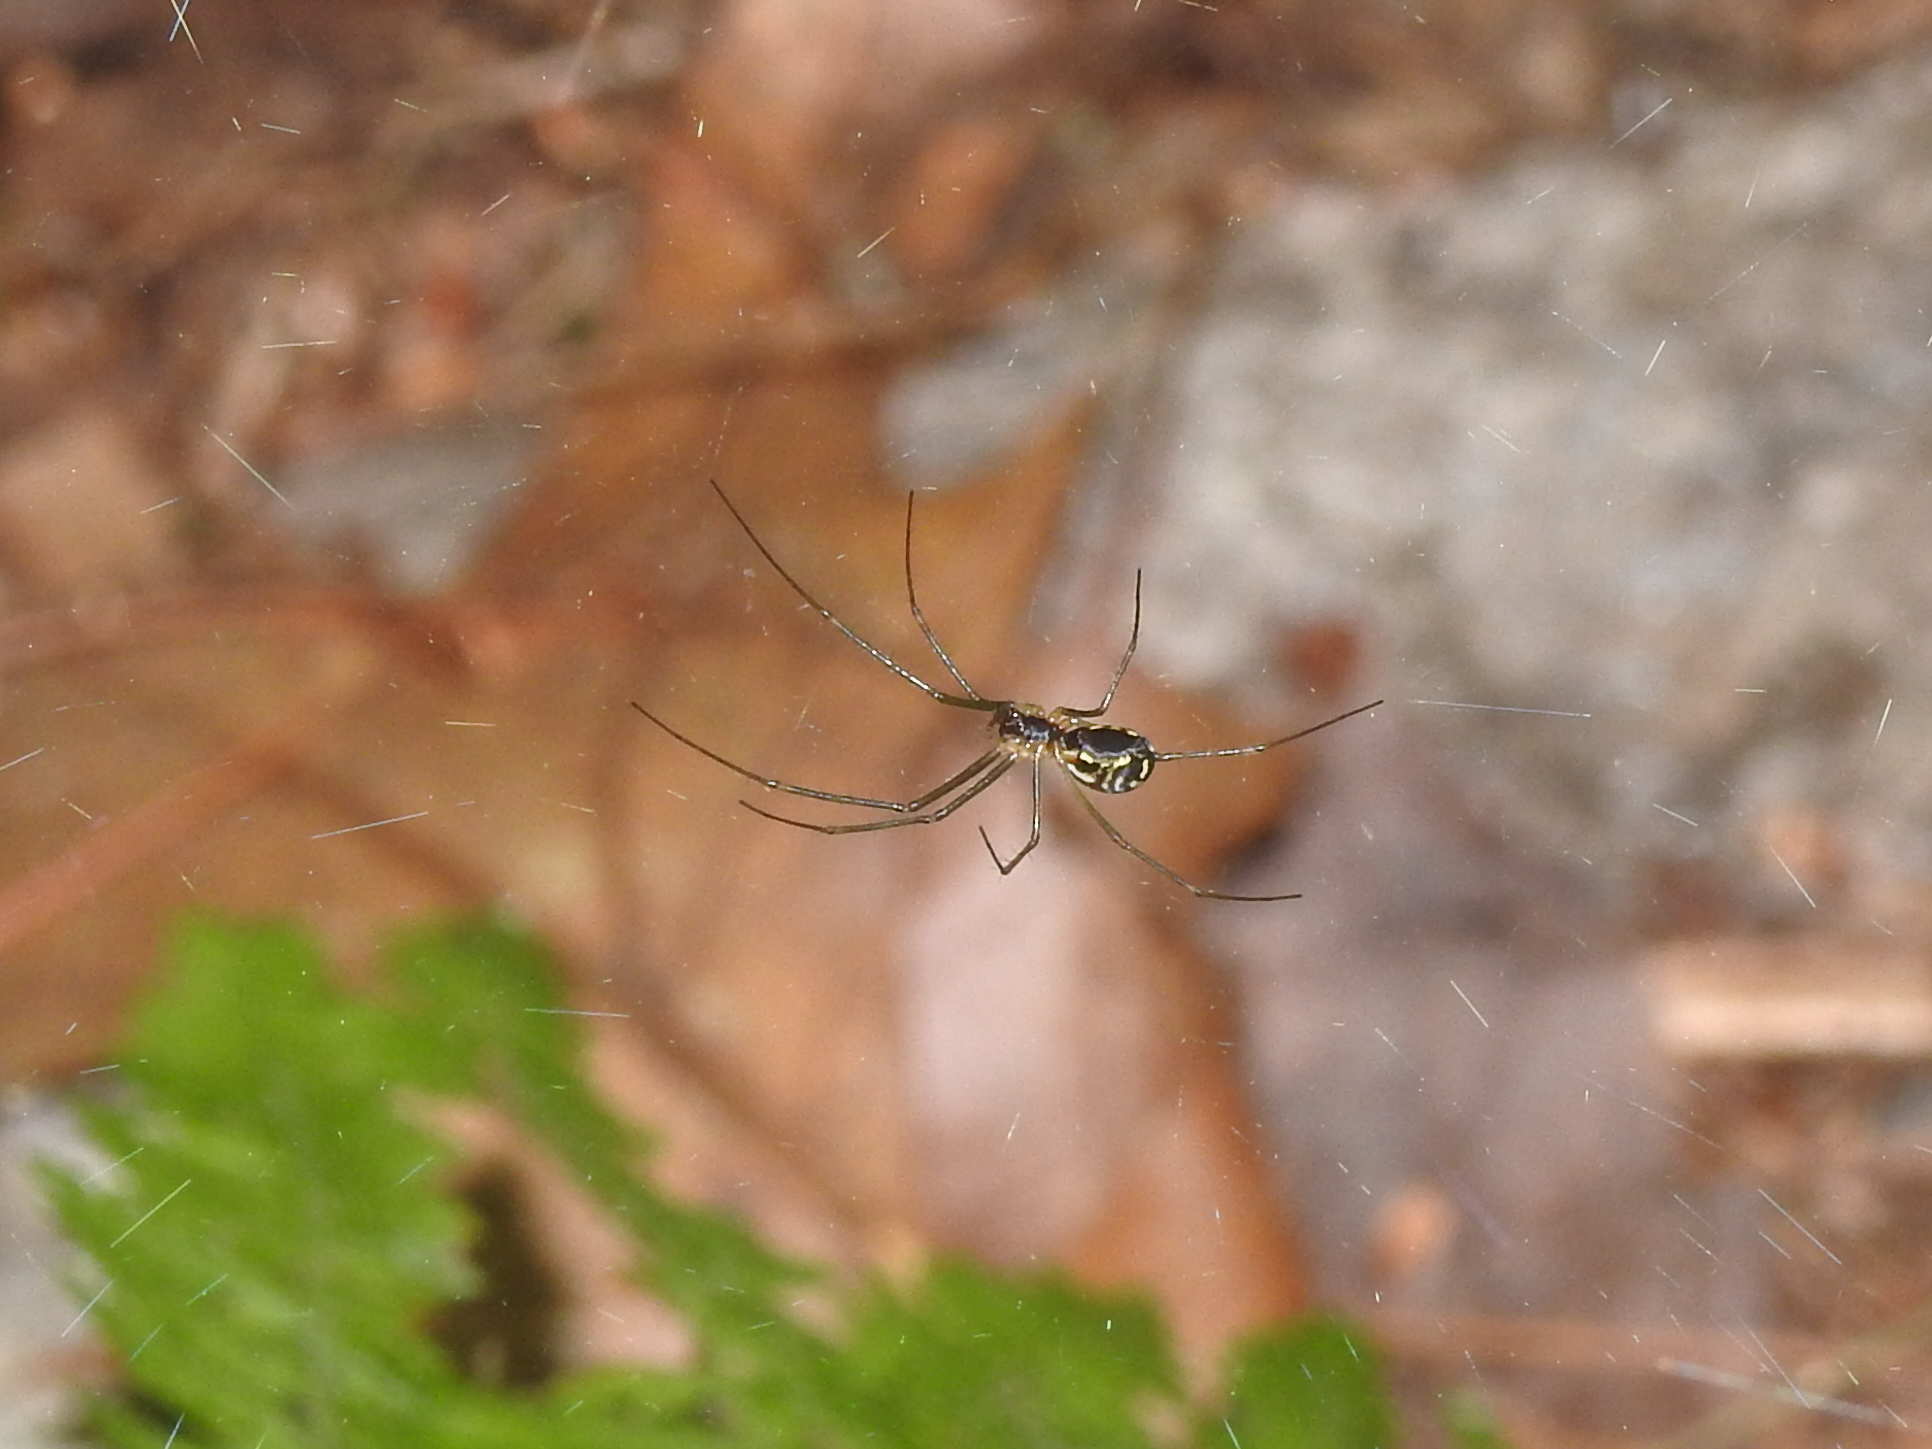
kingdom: Animalia
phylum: Arthropoda
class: Arachnida
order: Araneae
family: Linyphiidae
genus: Neriene
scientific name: Neriene radiata
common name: Filmy dome spider
